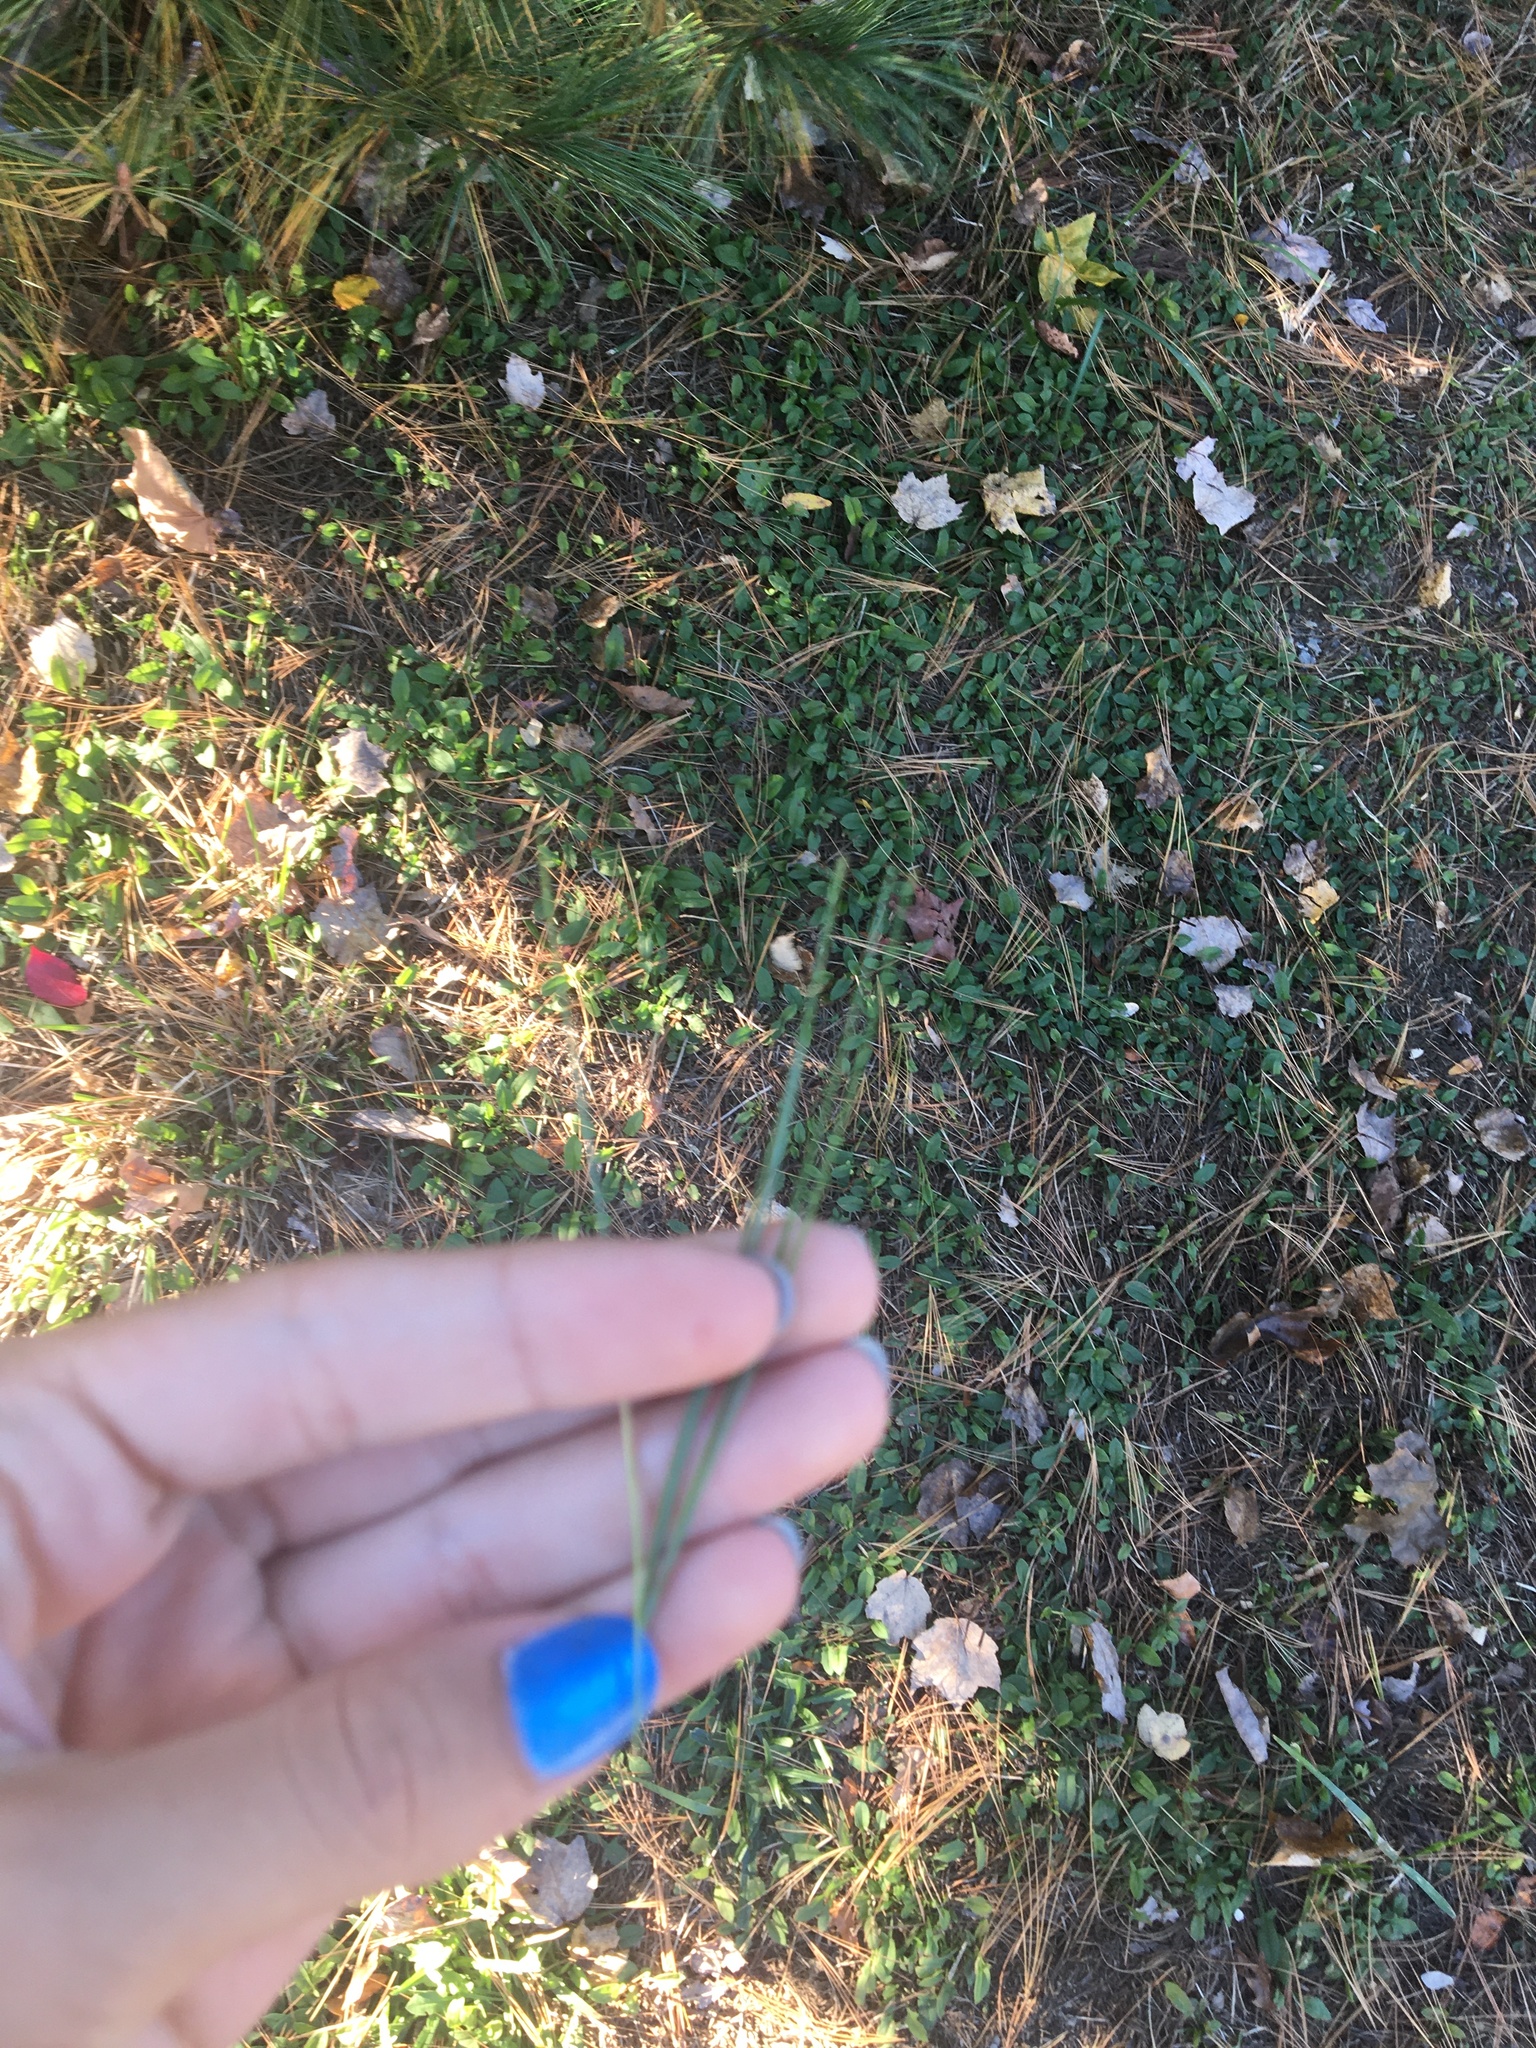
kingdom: Plantae
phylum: Tracheophyta
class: Pinopsida
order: Pinales
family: Pinaceae
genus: Pinus
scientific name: Pinus strobus
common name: Weymouth pine
